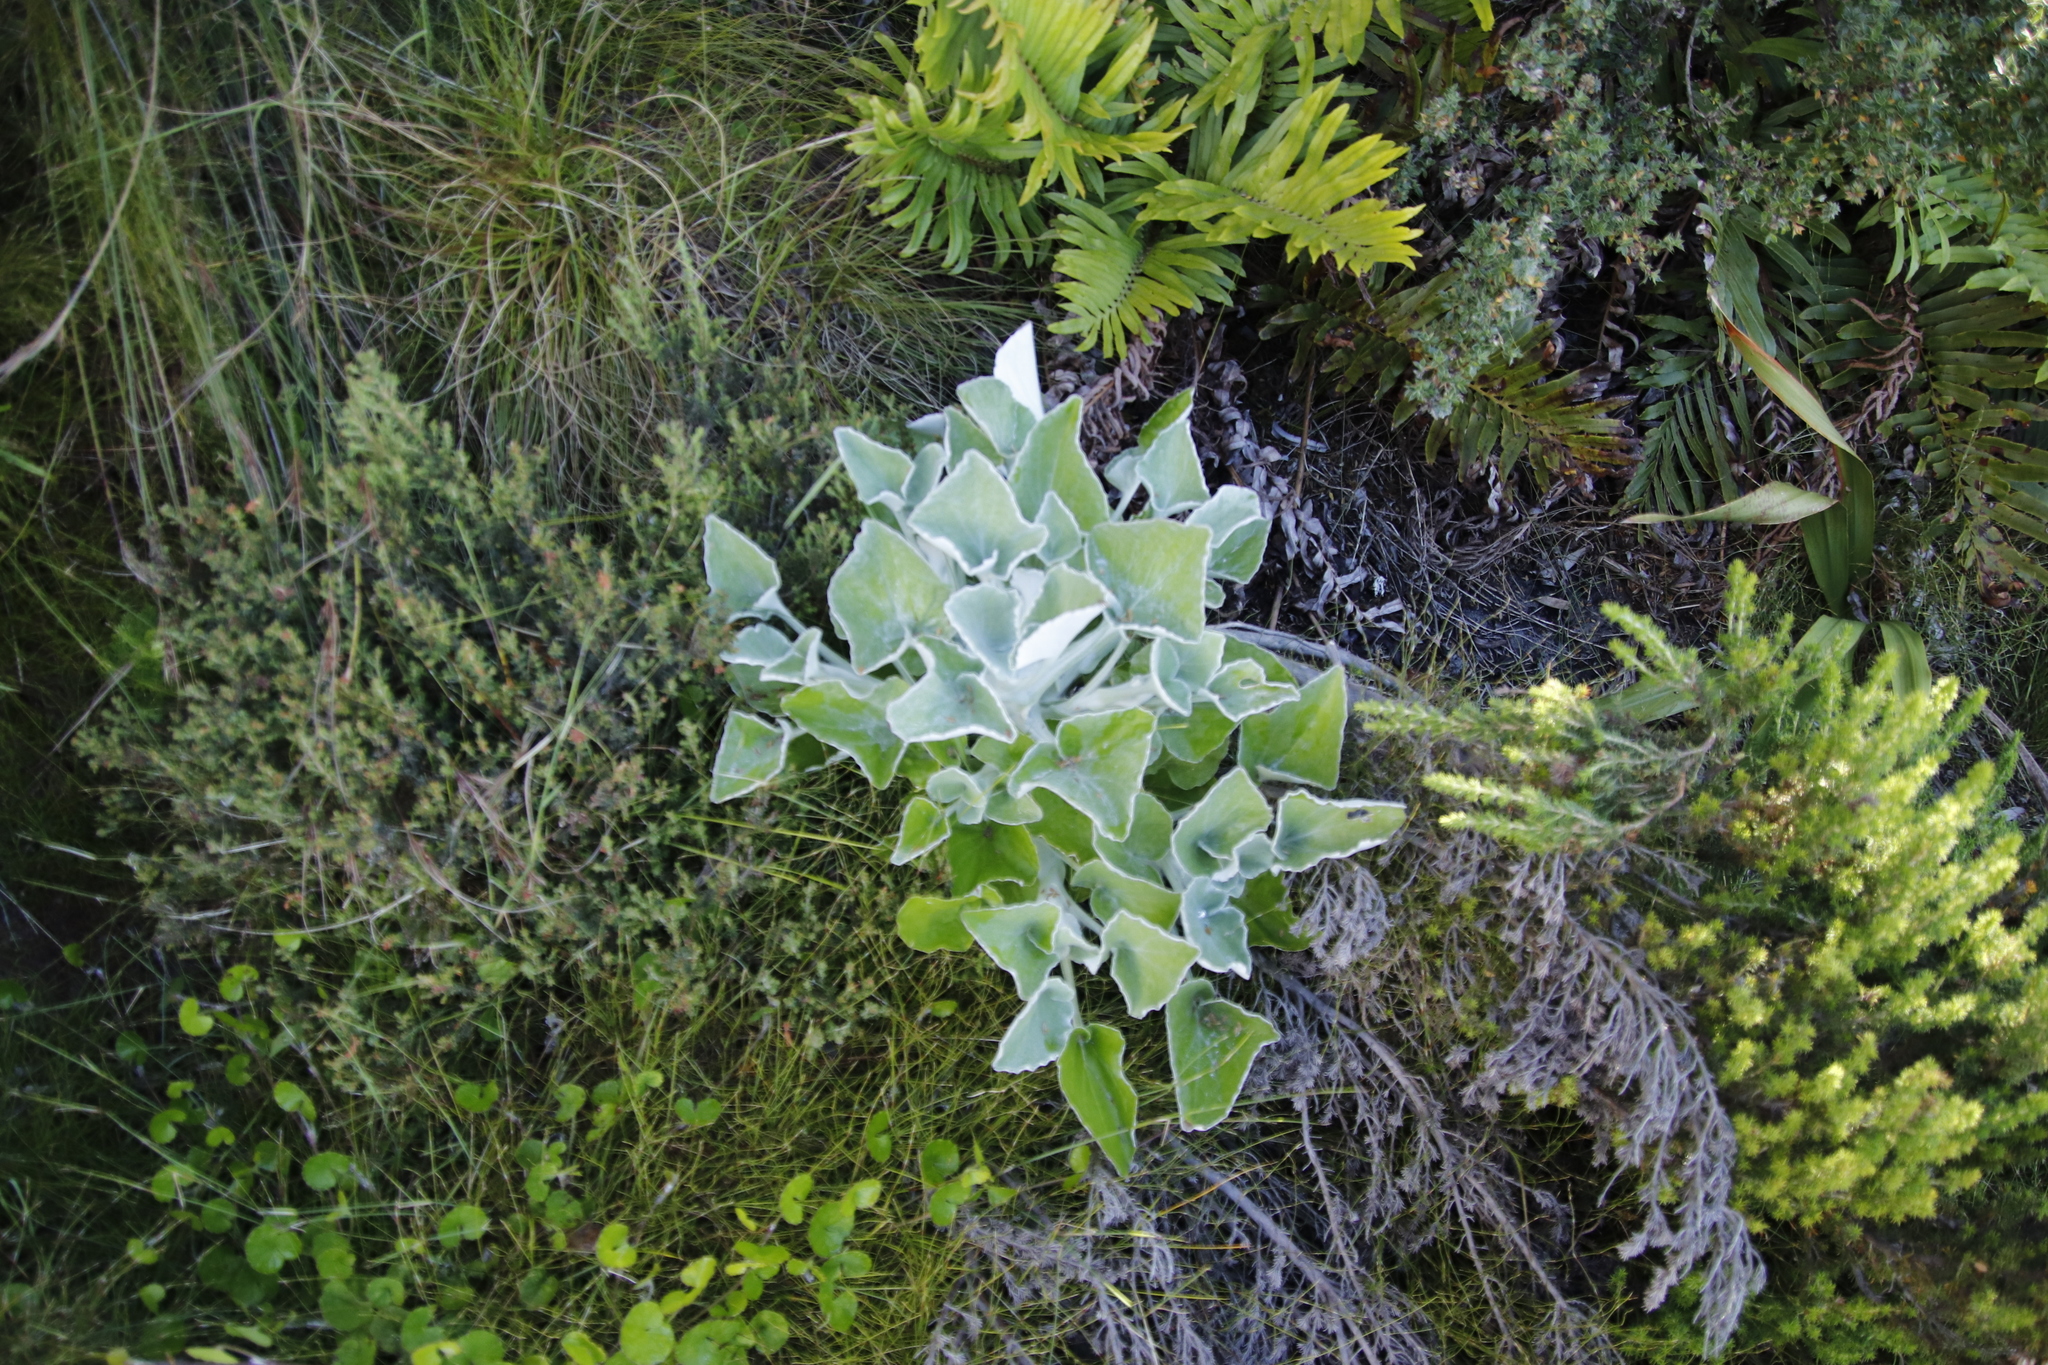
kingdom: Plantae
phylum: Tracheophyta
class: Magnoliopsida
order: Asterales
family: Asteraceae
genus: Senecio
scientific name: Senecio verbascifolius
